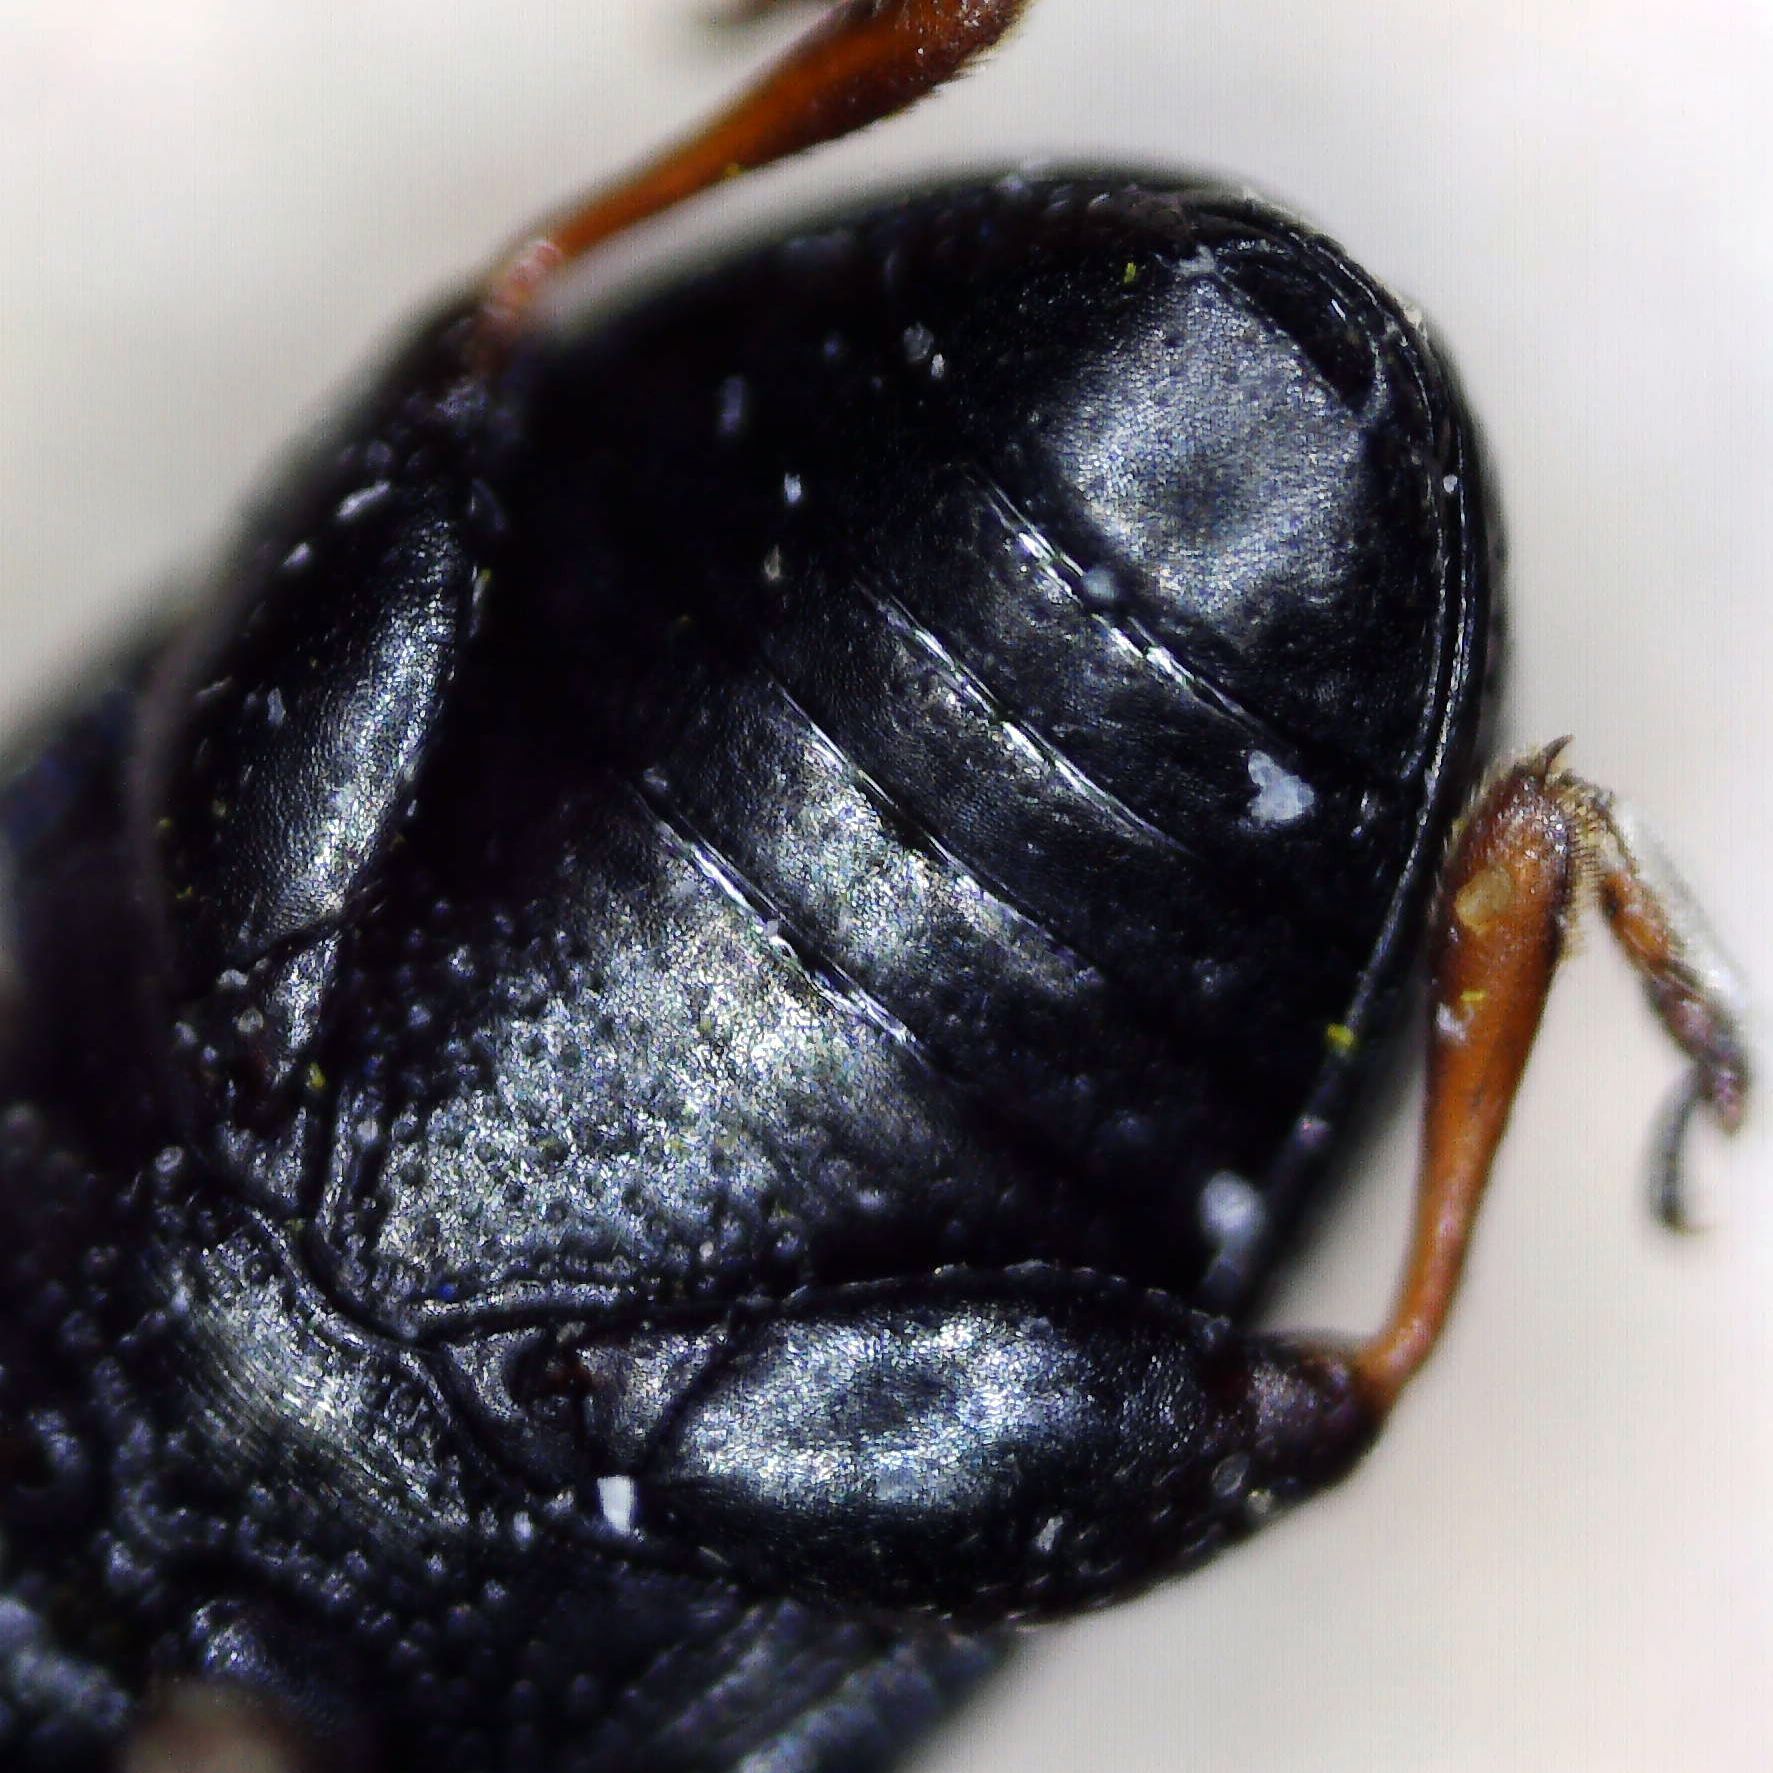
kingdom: Animalia
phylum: Arthropoda
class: Insecta
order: Coleoptera
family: Chrysomelidae
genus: Mantura
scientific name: Mantura obtusata
